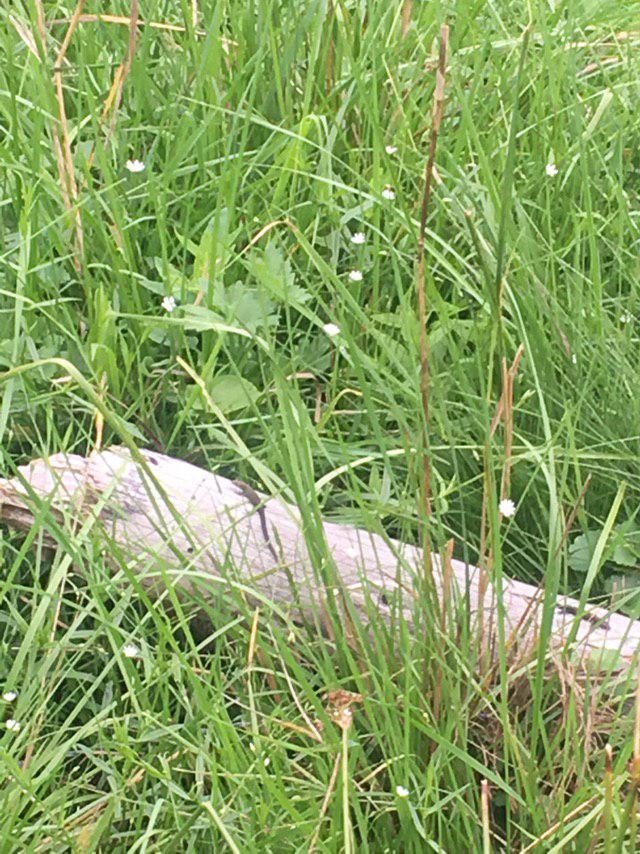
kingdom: Animalia
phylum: Chordata
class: Squamata
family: Lacertidae
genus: Zootoca
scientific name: Zootoca vivipara
